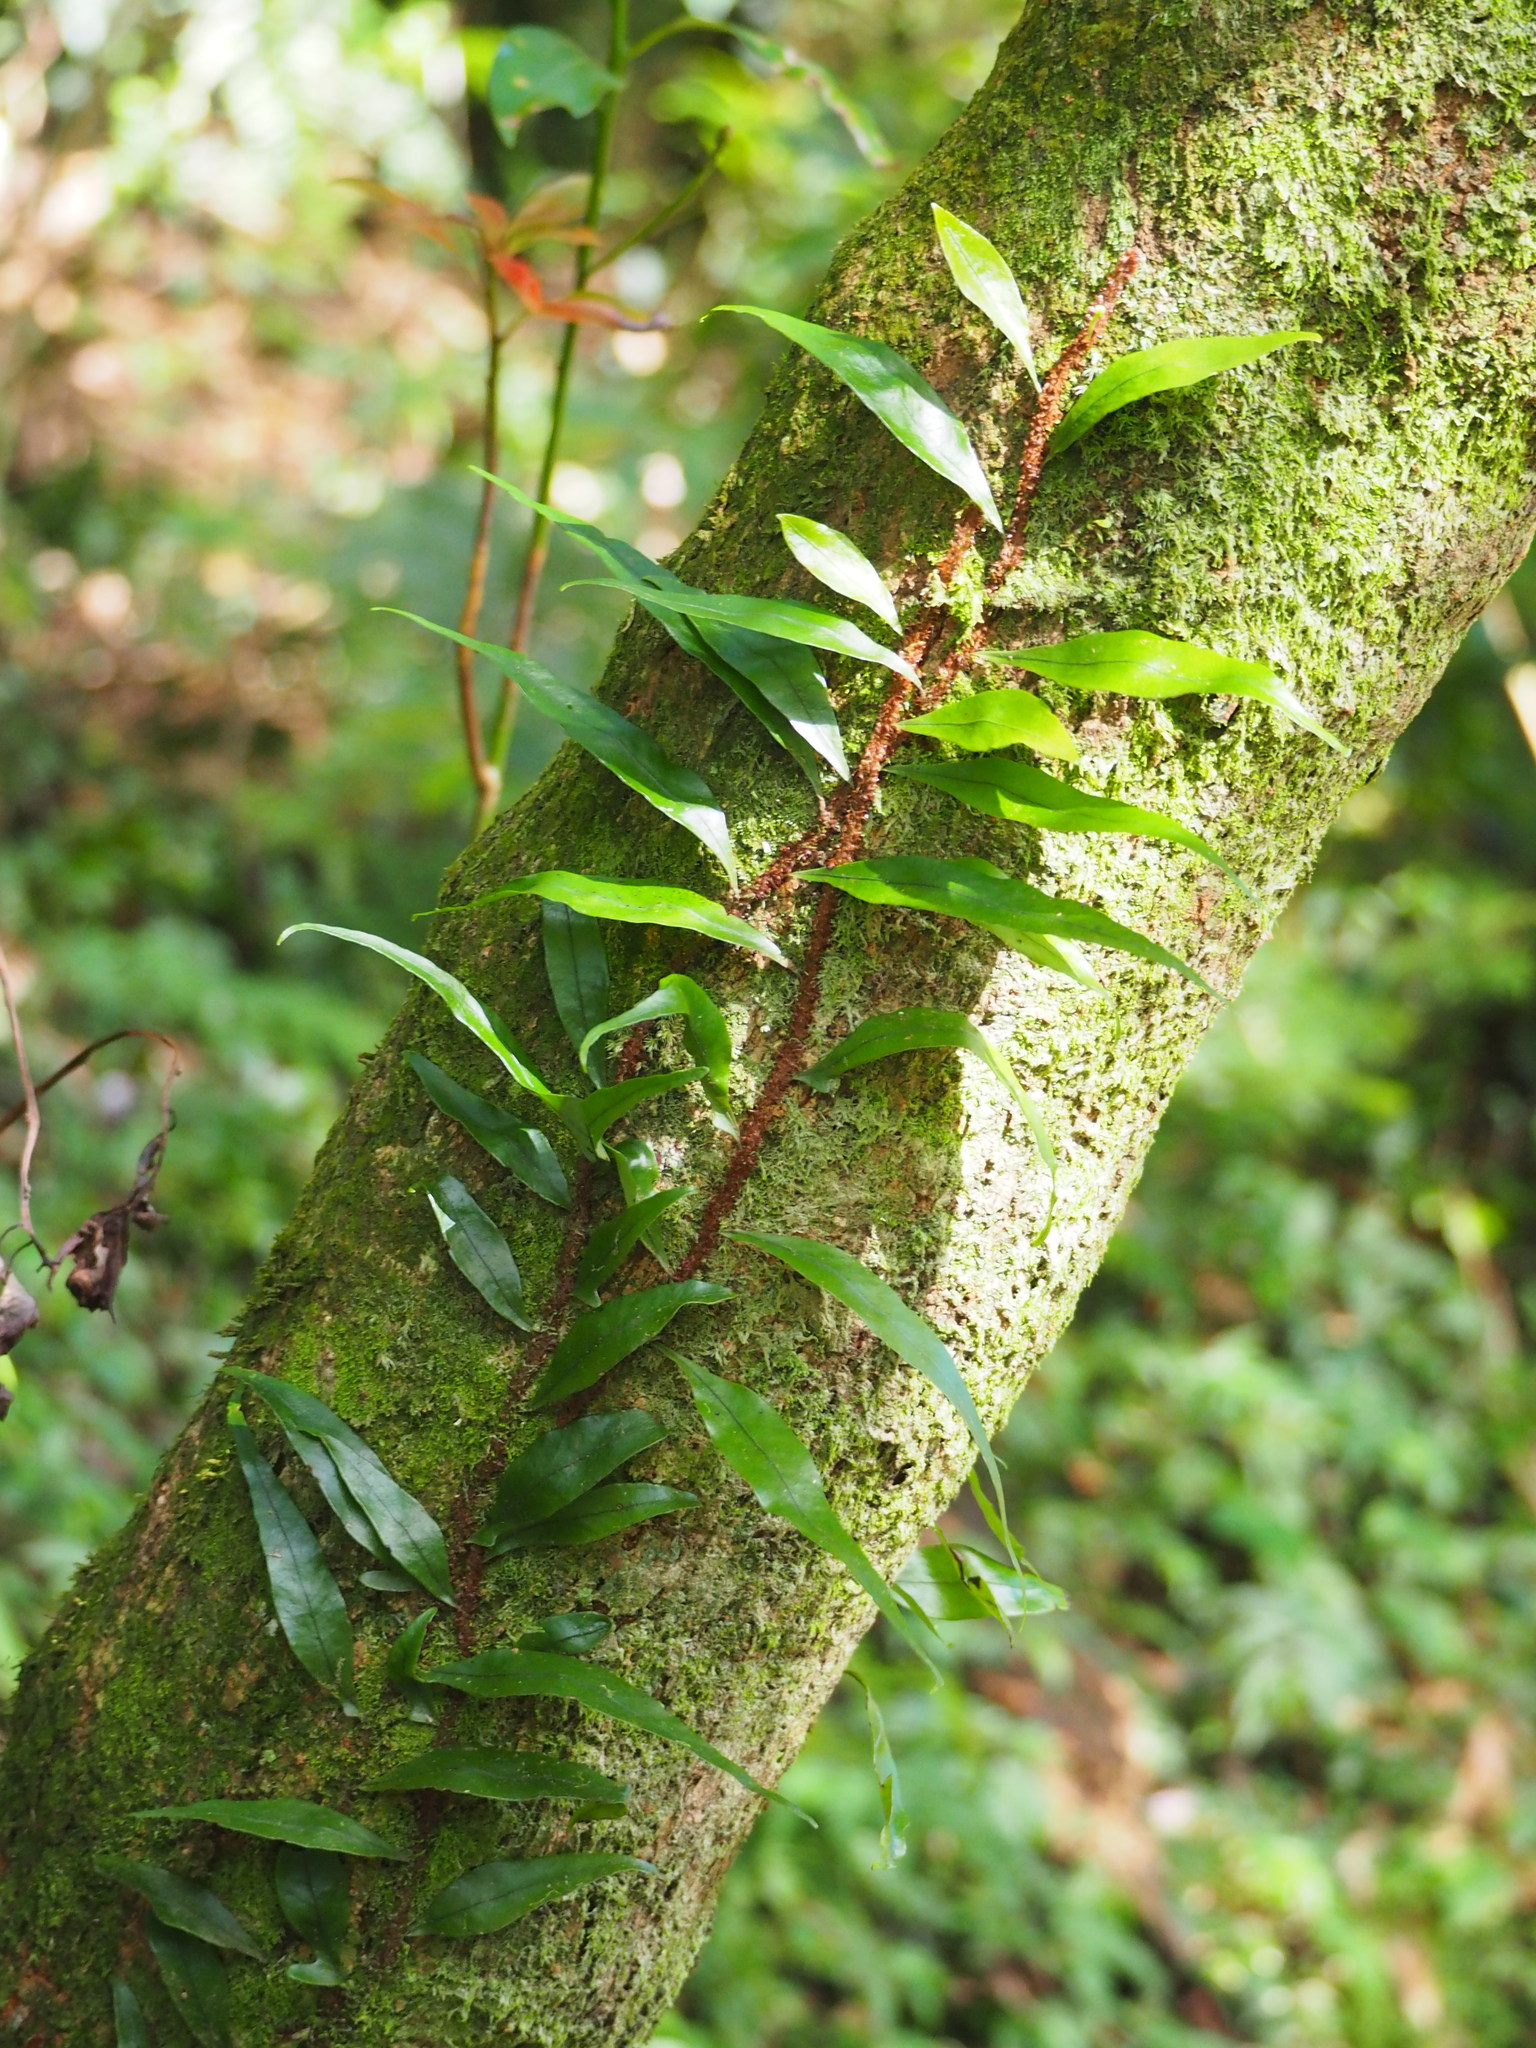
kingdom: Plantae
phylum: Tracheophyta
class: Polypodiopsida
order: Polypodiales
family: Polypodiaceae
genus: Lepisorus
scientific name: Lepisorus superficialis
